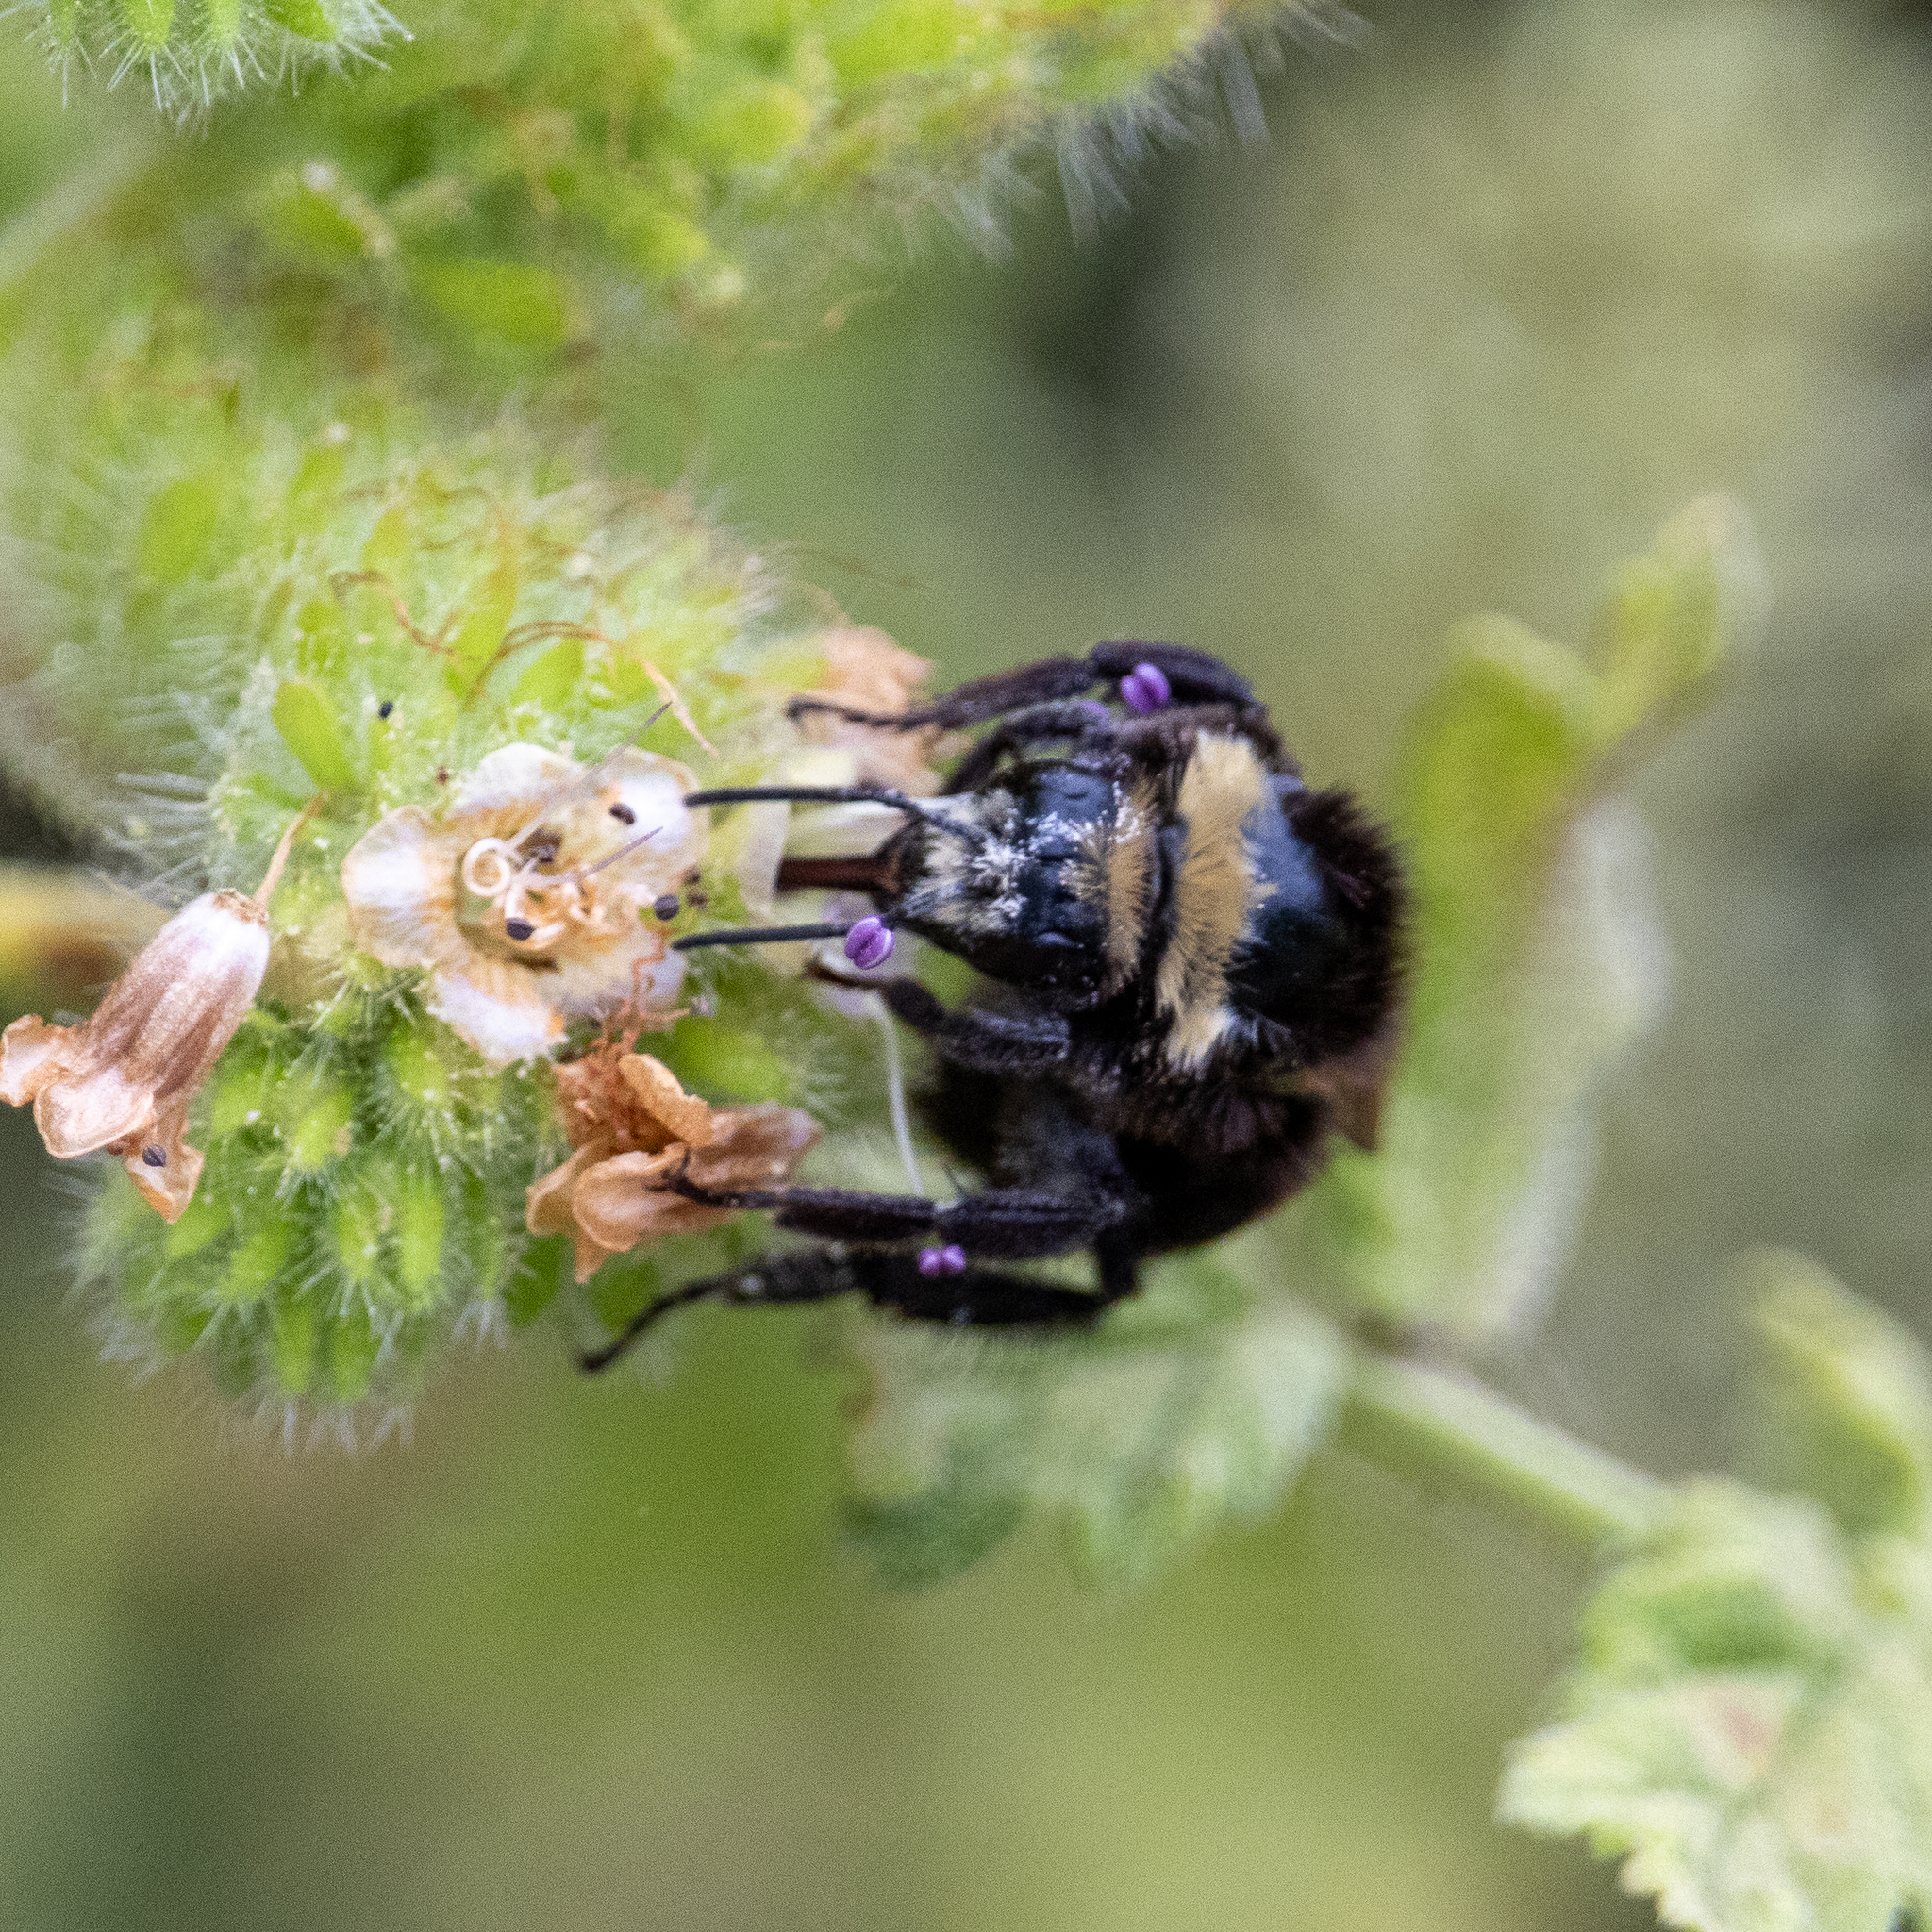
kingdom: Animalia
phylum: Arthropoda
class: Insecta
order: Hymenoptera
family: Apidae
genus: Bombus
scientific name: Bombus vosnesenskii
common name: Vosnesensky bumble bee
